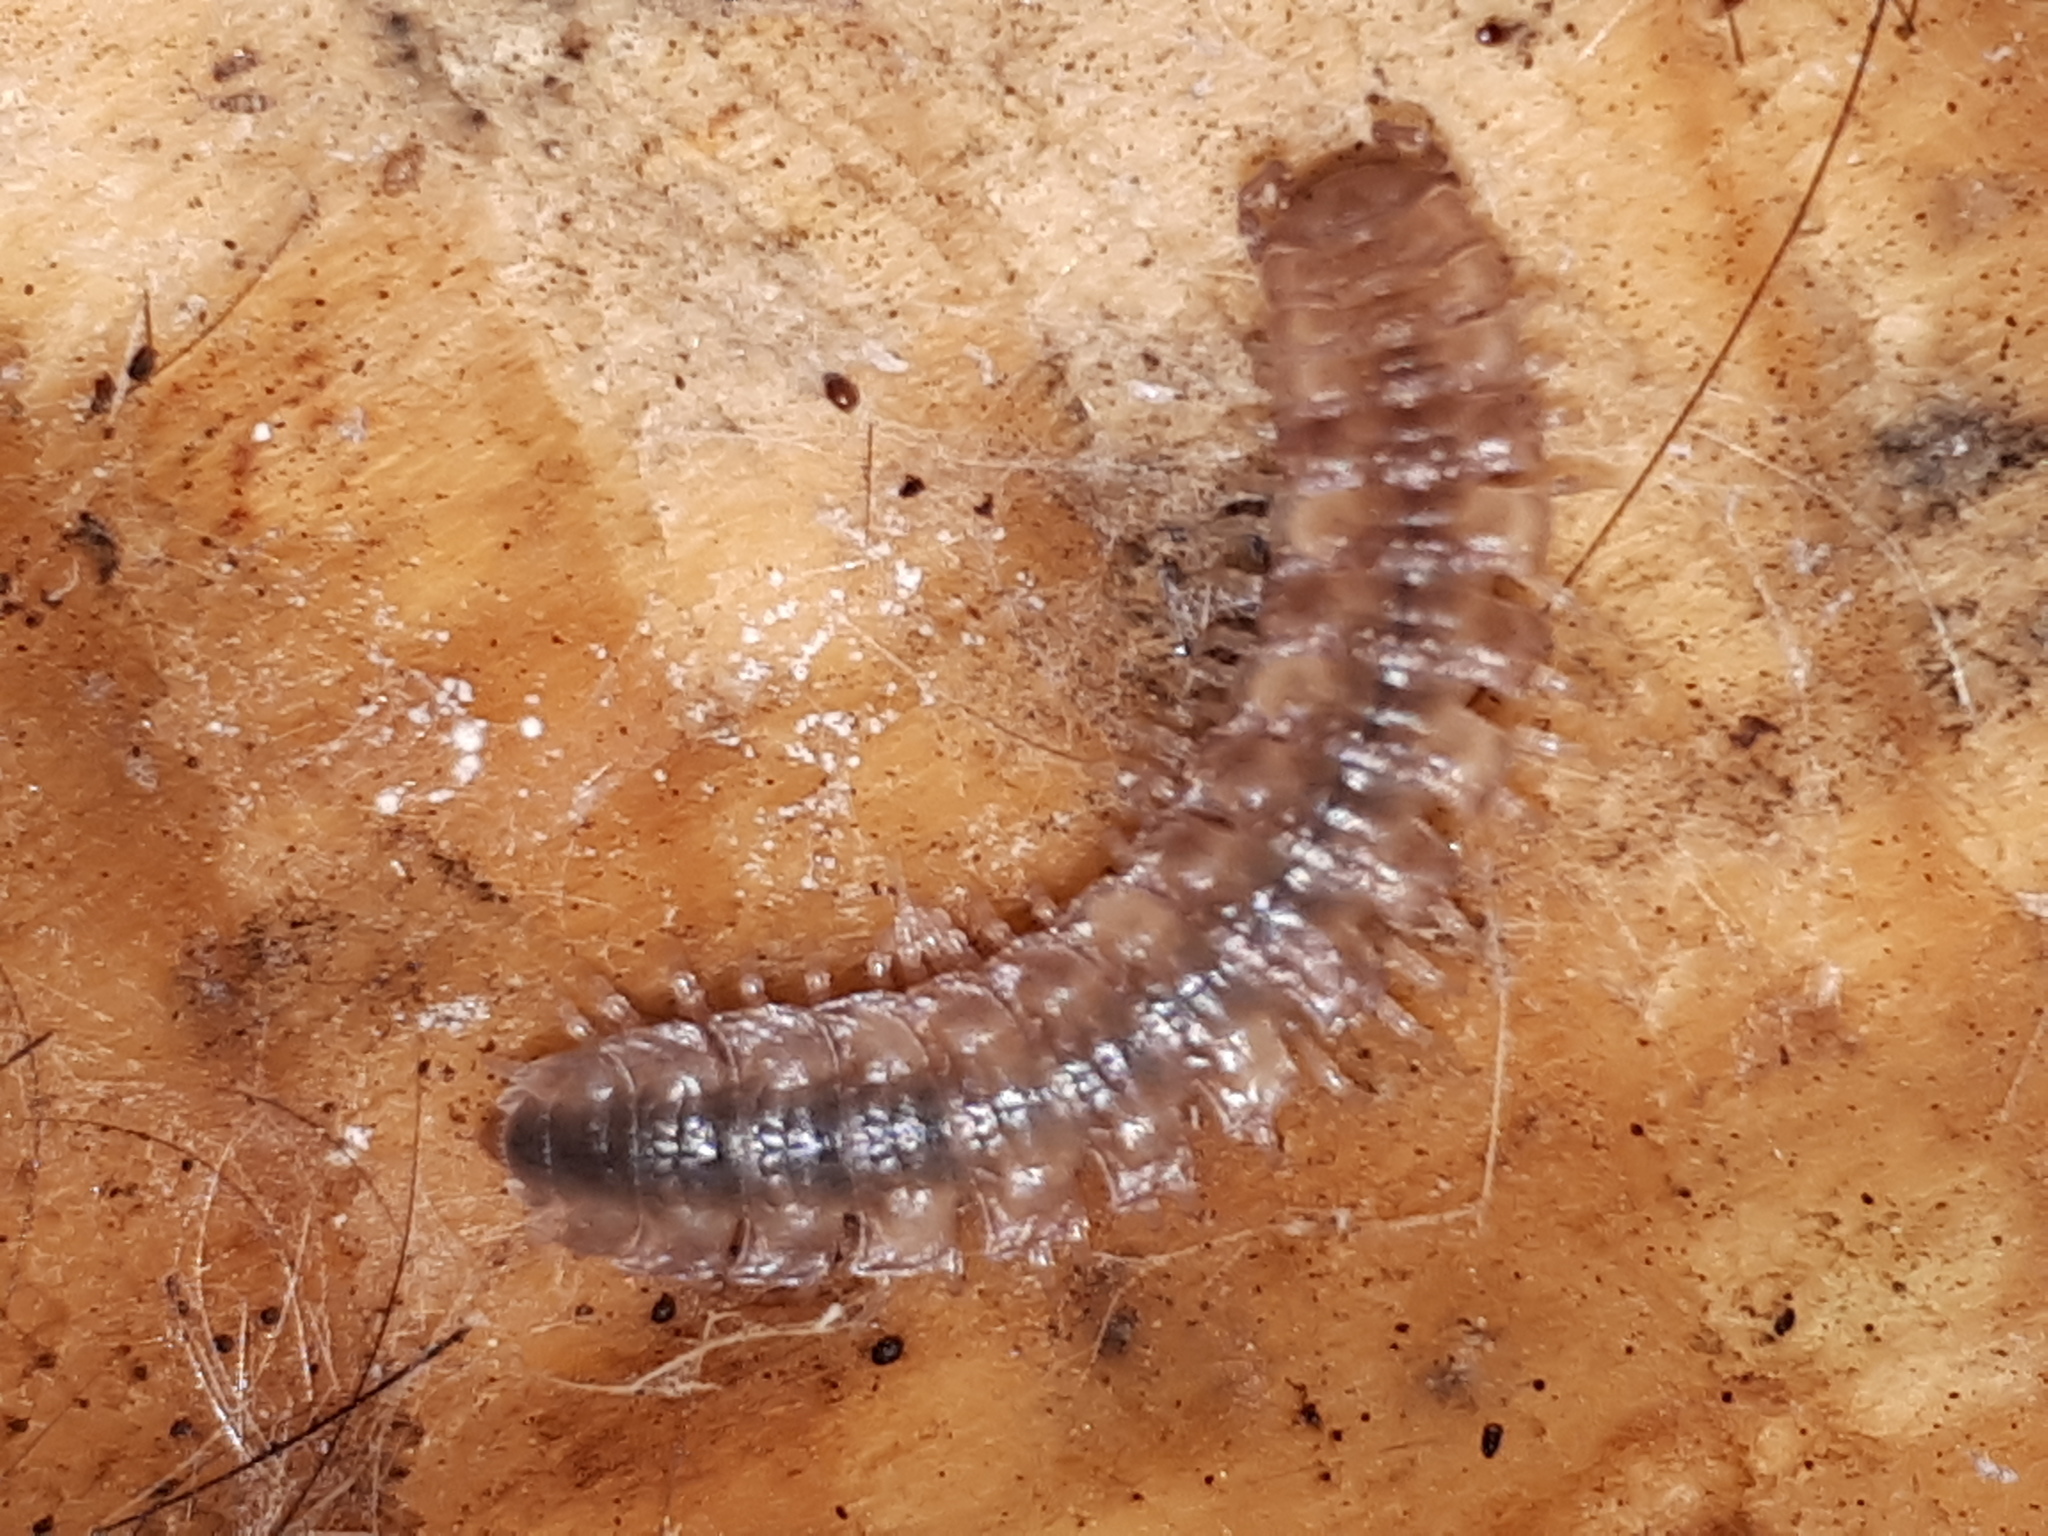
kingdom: Animalia
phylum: Arthropoda
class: Diplopoda
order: Polydesmida
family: Polydesmidae
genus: Polydesmus
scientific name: Polydesmus complanatus
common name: Flat-backed millipede
